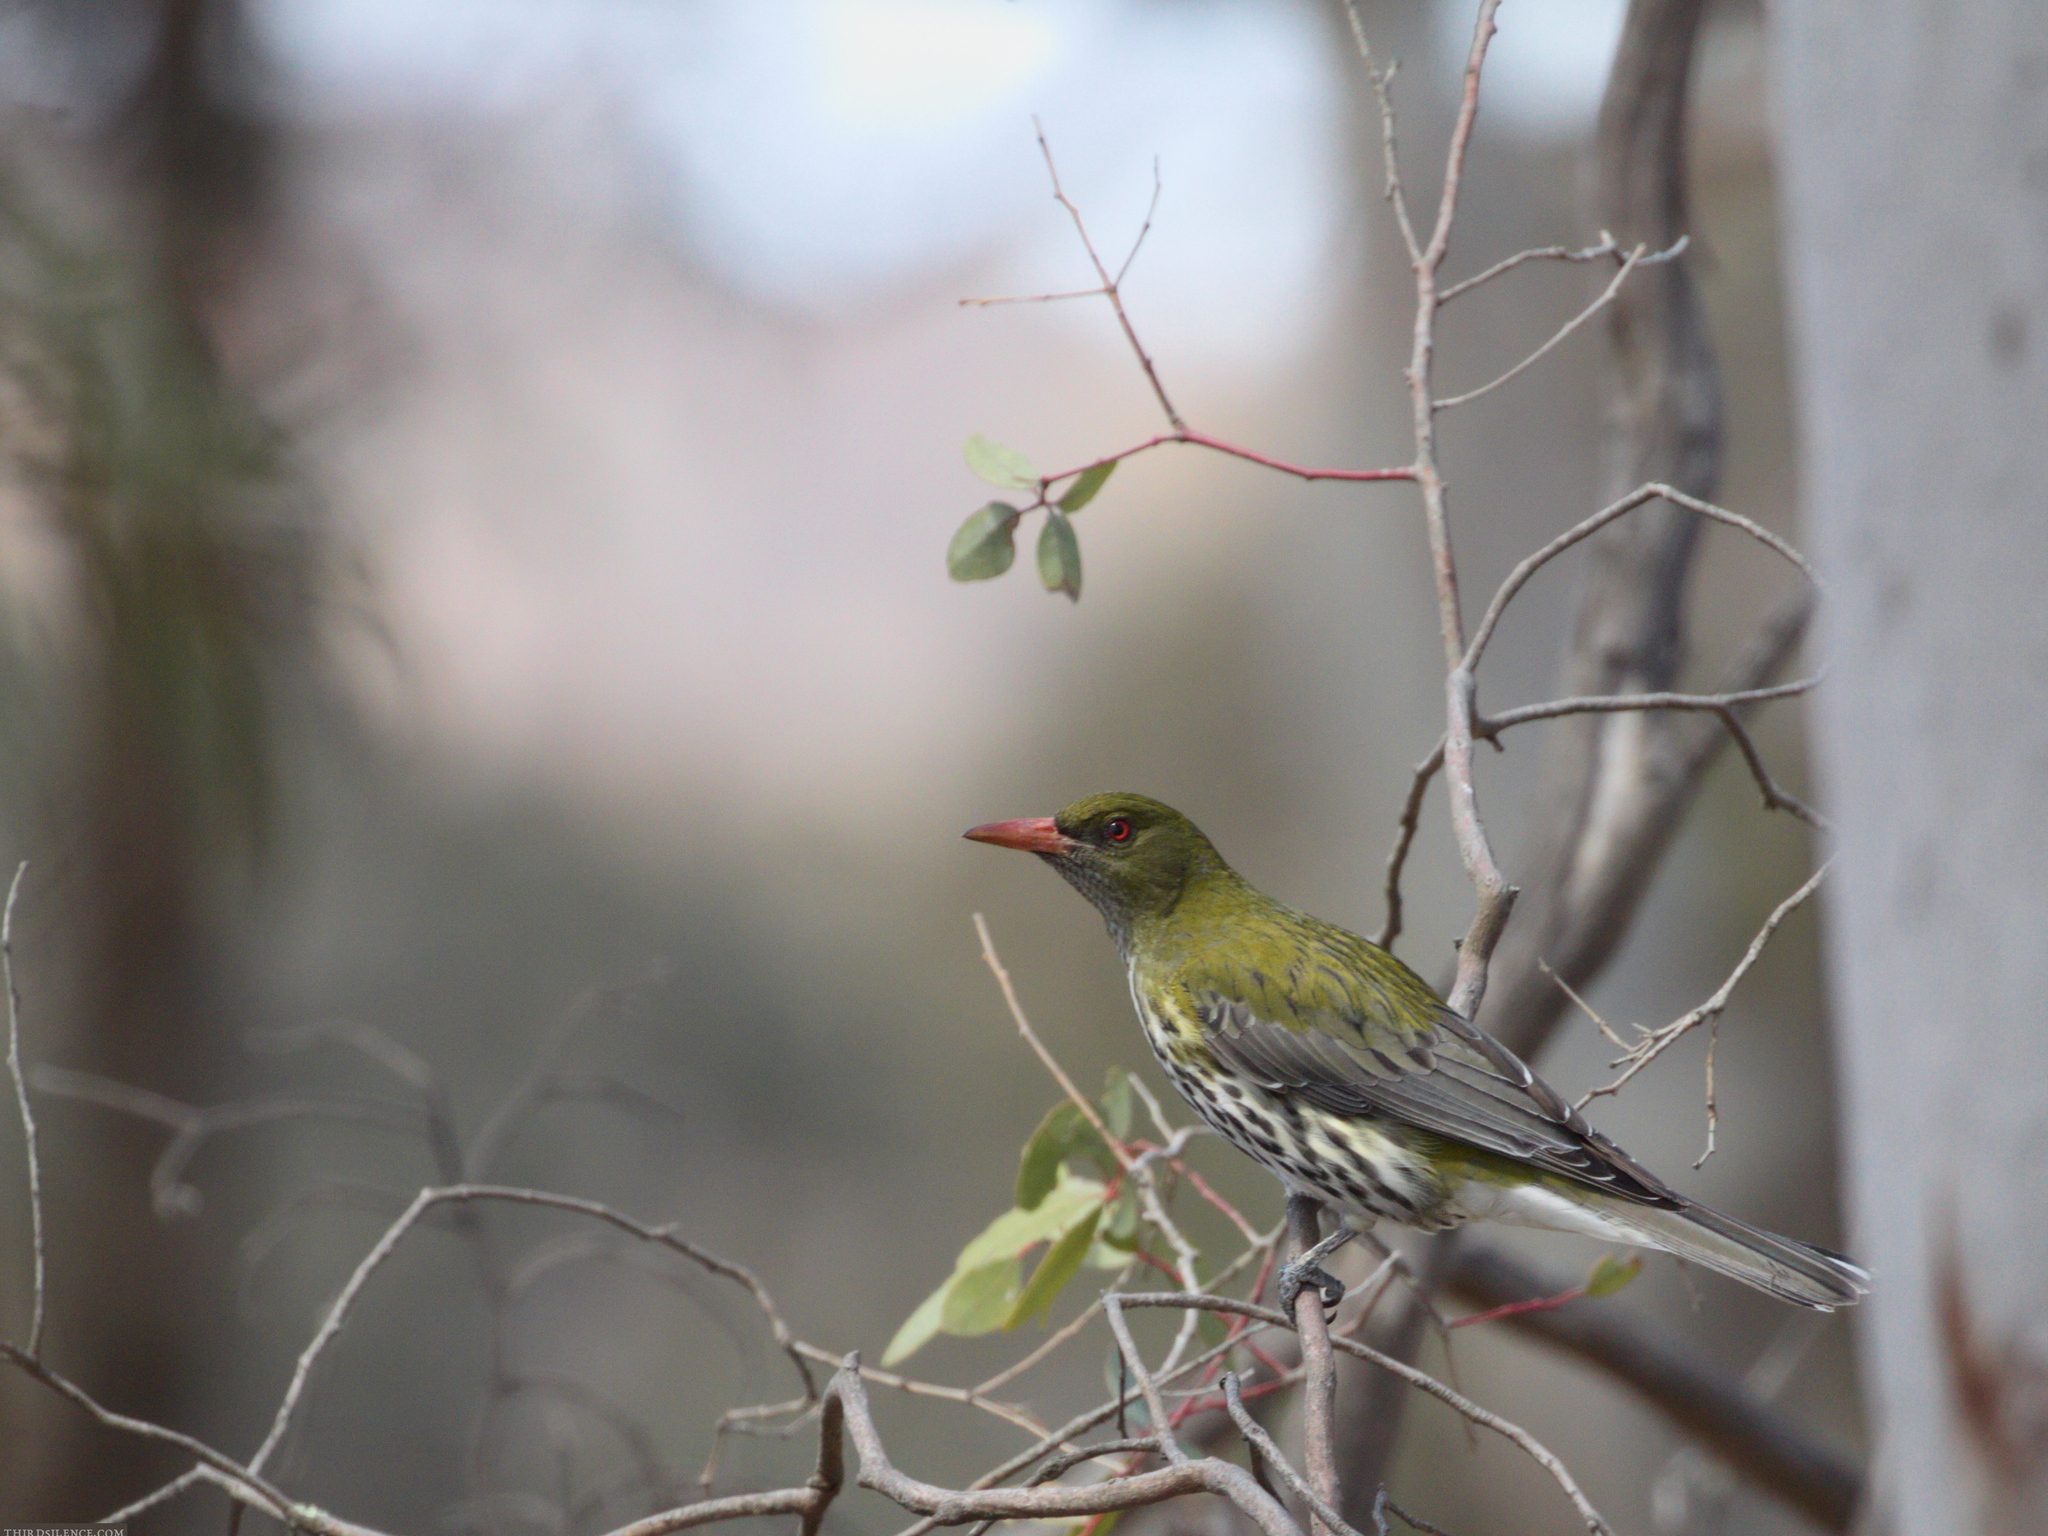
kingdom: Animalia
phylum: Chordata
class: Aves
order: Passeriformes
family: Oriolidae
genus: Oriolus
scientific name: Oriolus sagittatus
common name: Olive-backed oriole
